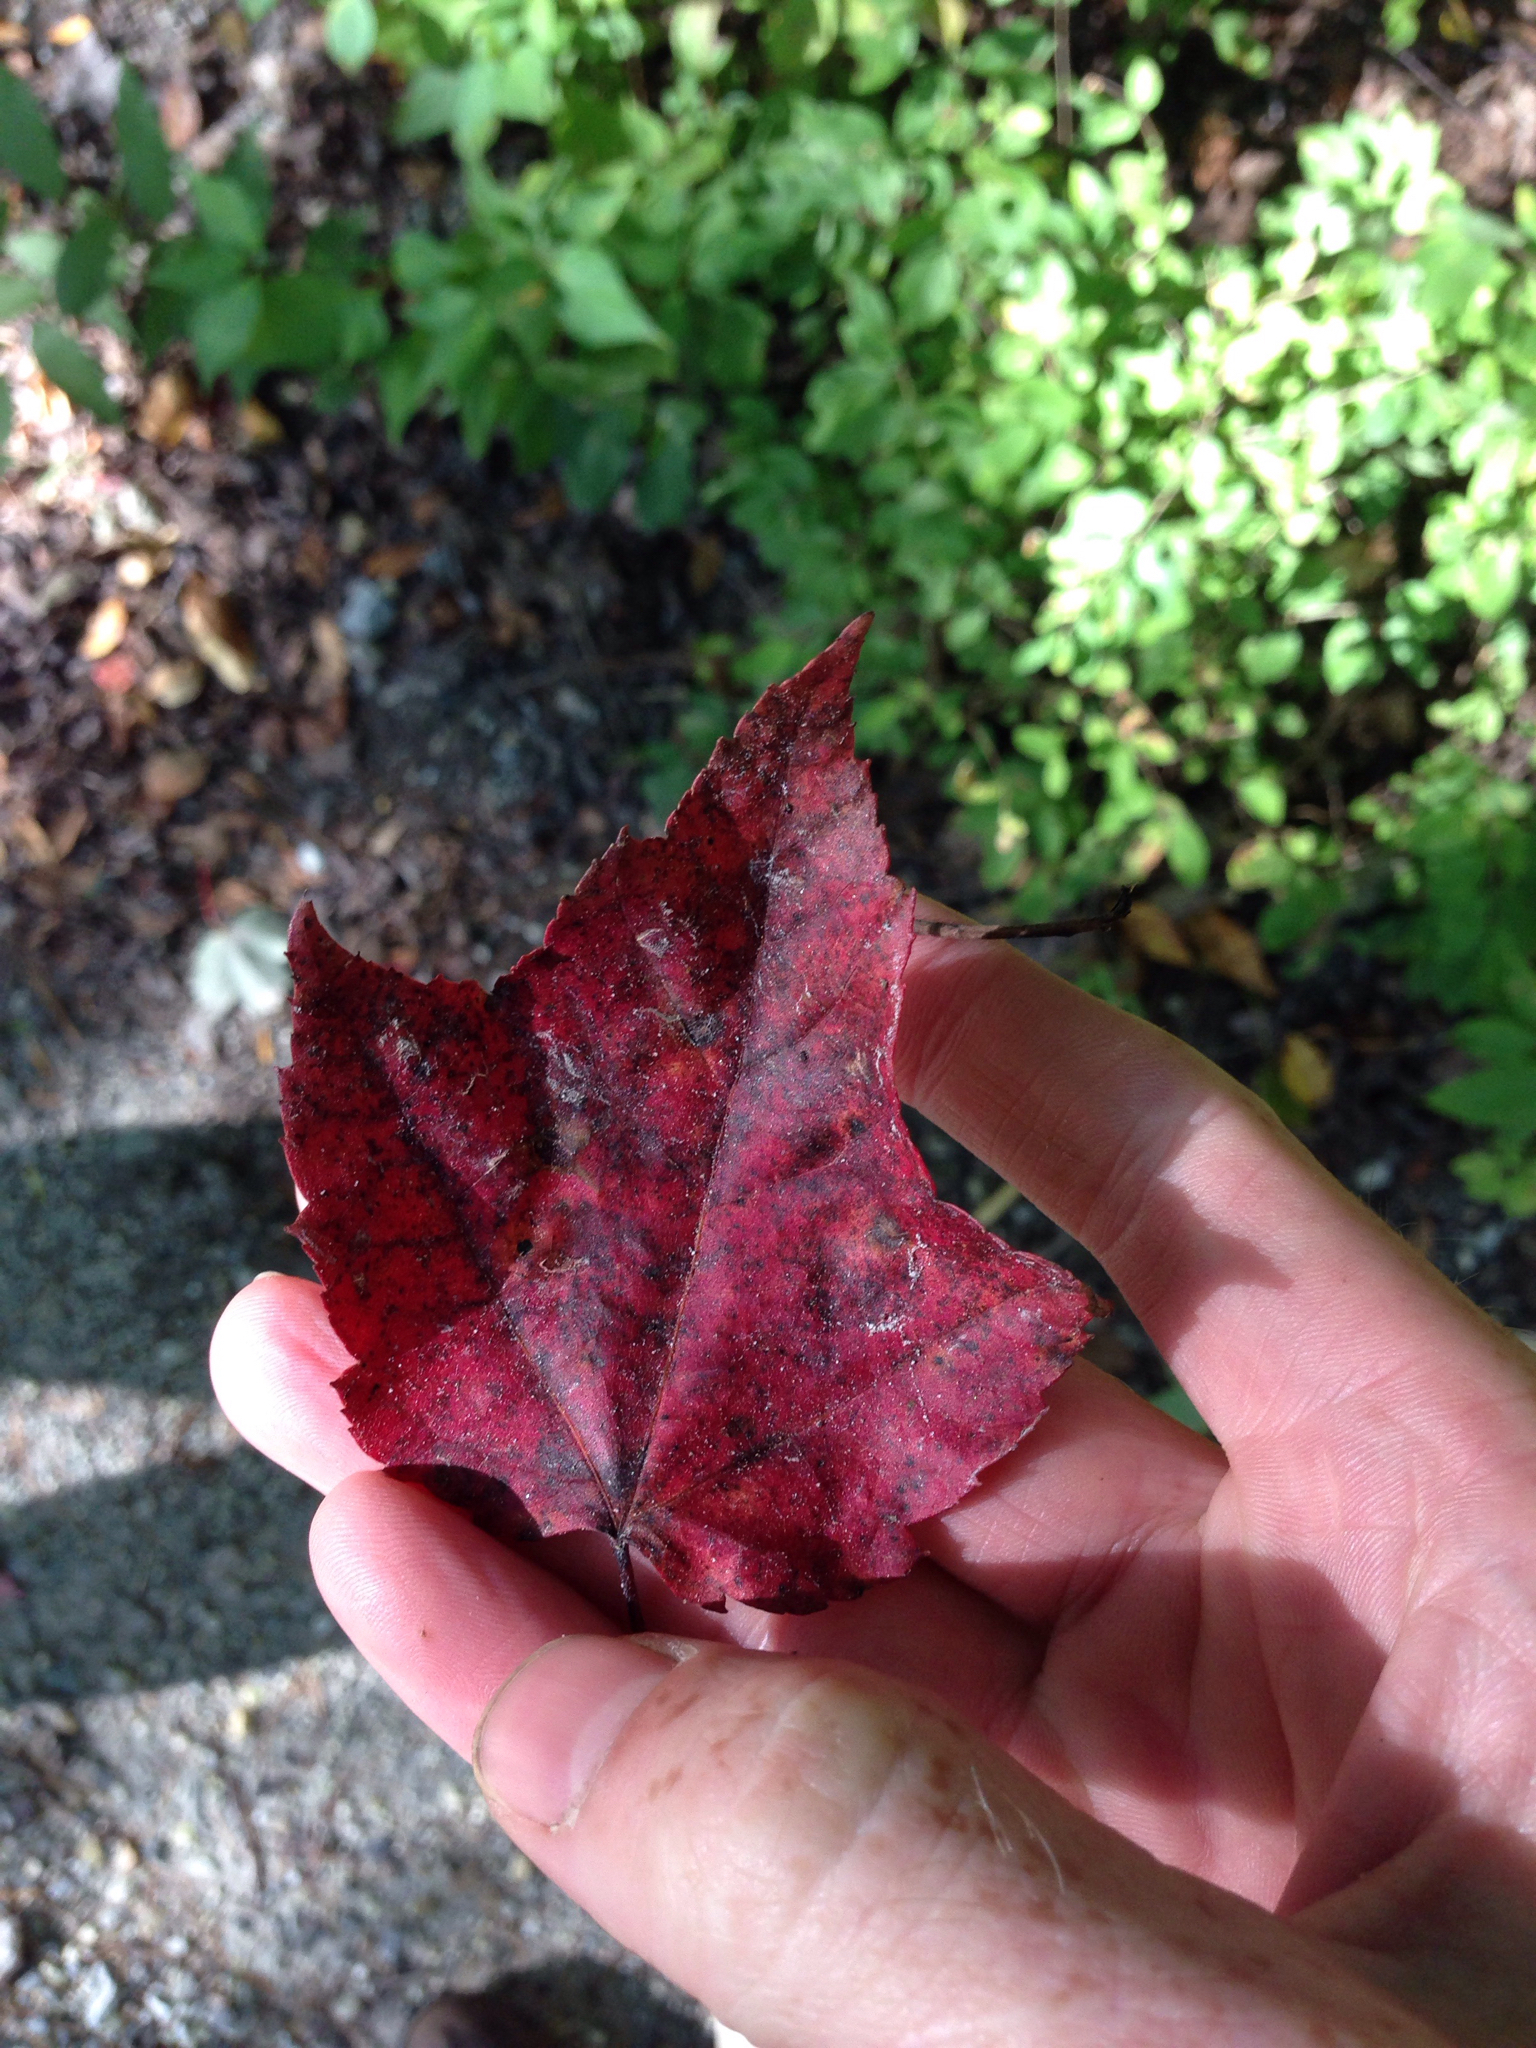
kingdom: Plantae
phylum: Tracheophyta
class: Magnoliopsida
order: Sapindales
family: Sapindaceae
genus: Acer
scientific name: Acer rubrum
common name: Red maple
